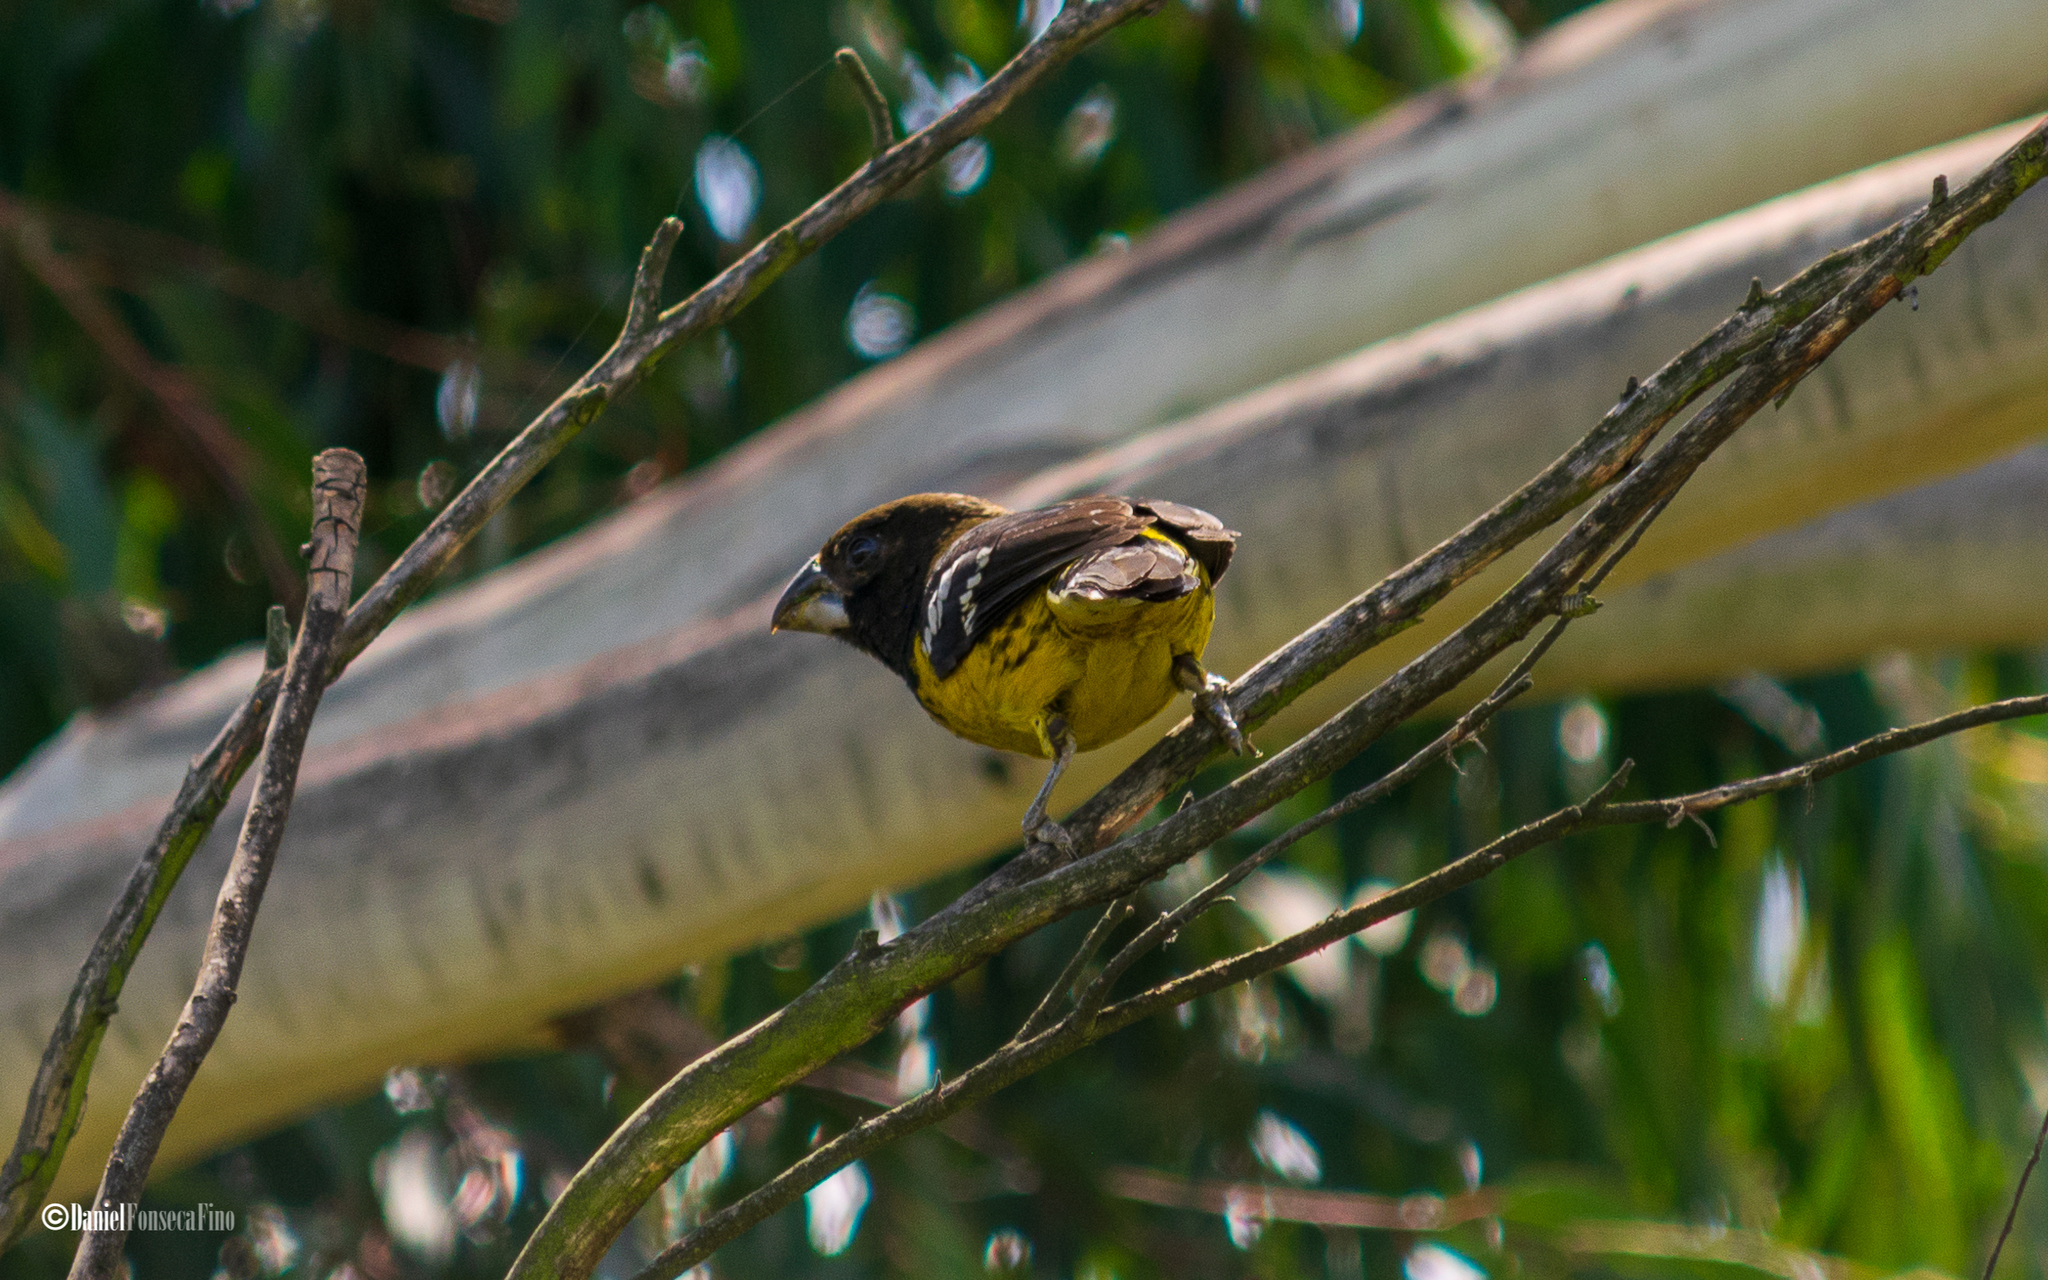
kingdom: Animalia
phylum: Chordata
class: Aves
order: Passeriformes
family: Cardinalidae
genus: Pheucticus
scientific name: Pheucticus aureoventris
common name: Black-backed grosbeak
